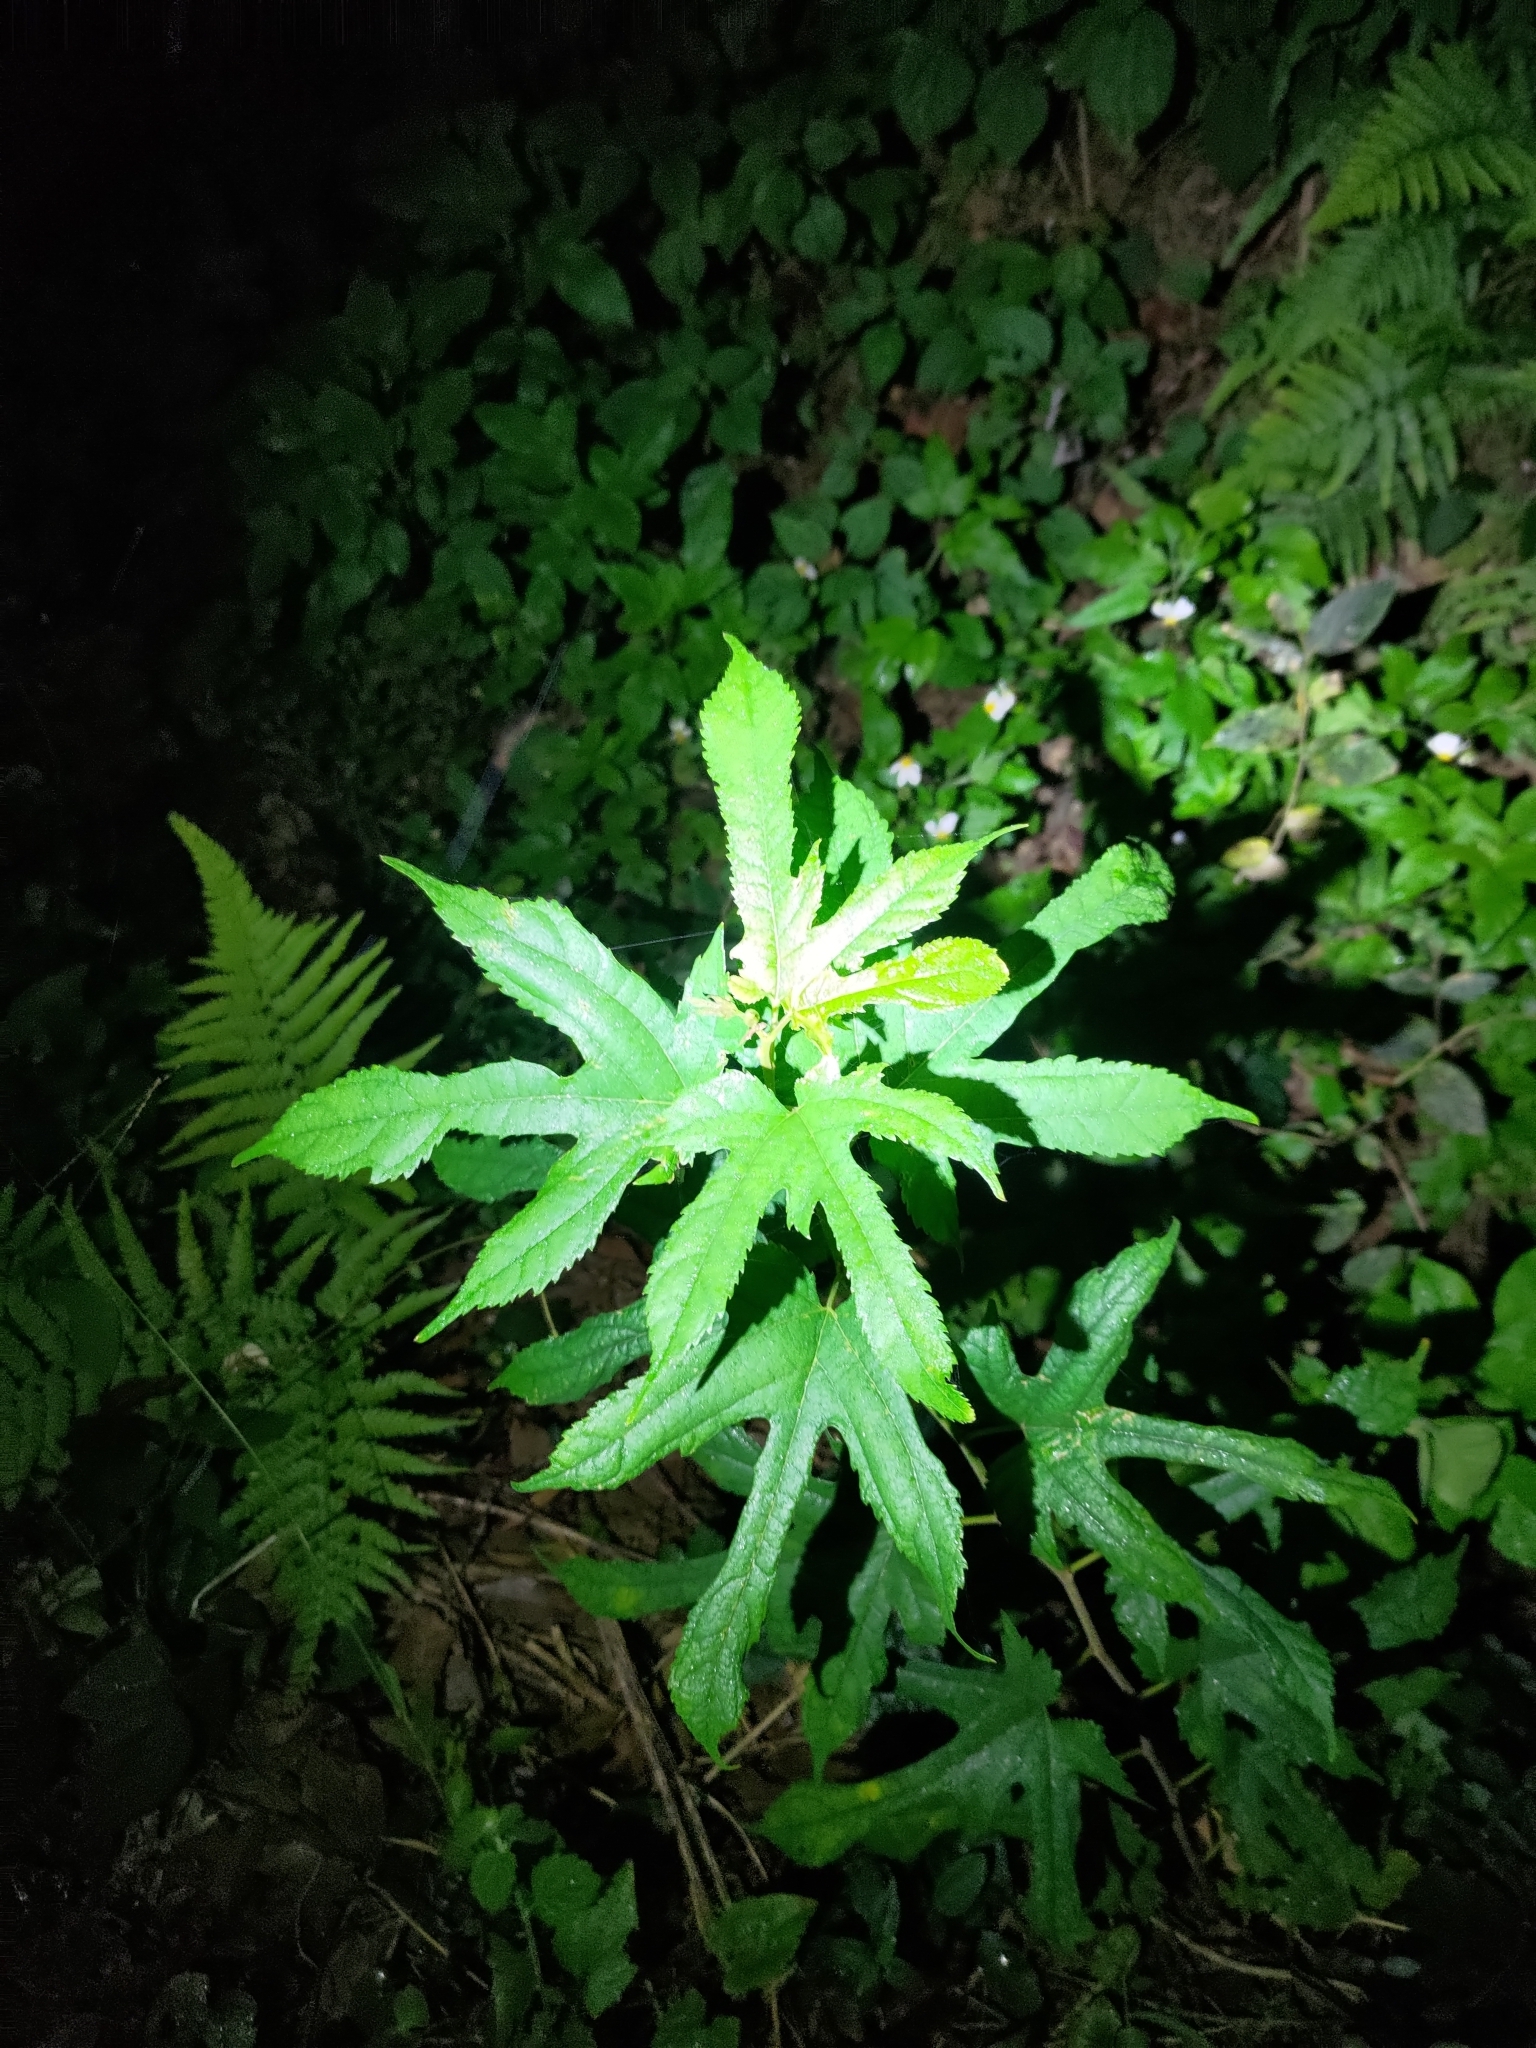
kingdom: Plantae
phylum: Tracheophyta
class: Magnoliopsida
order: Rosales
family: Moraceae
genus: Morus
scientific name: Morus indica
